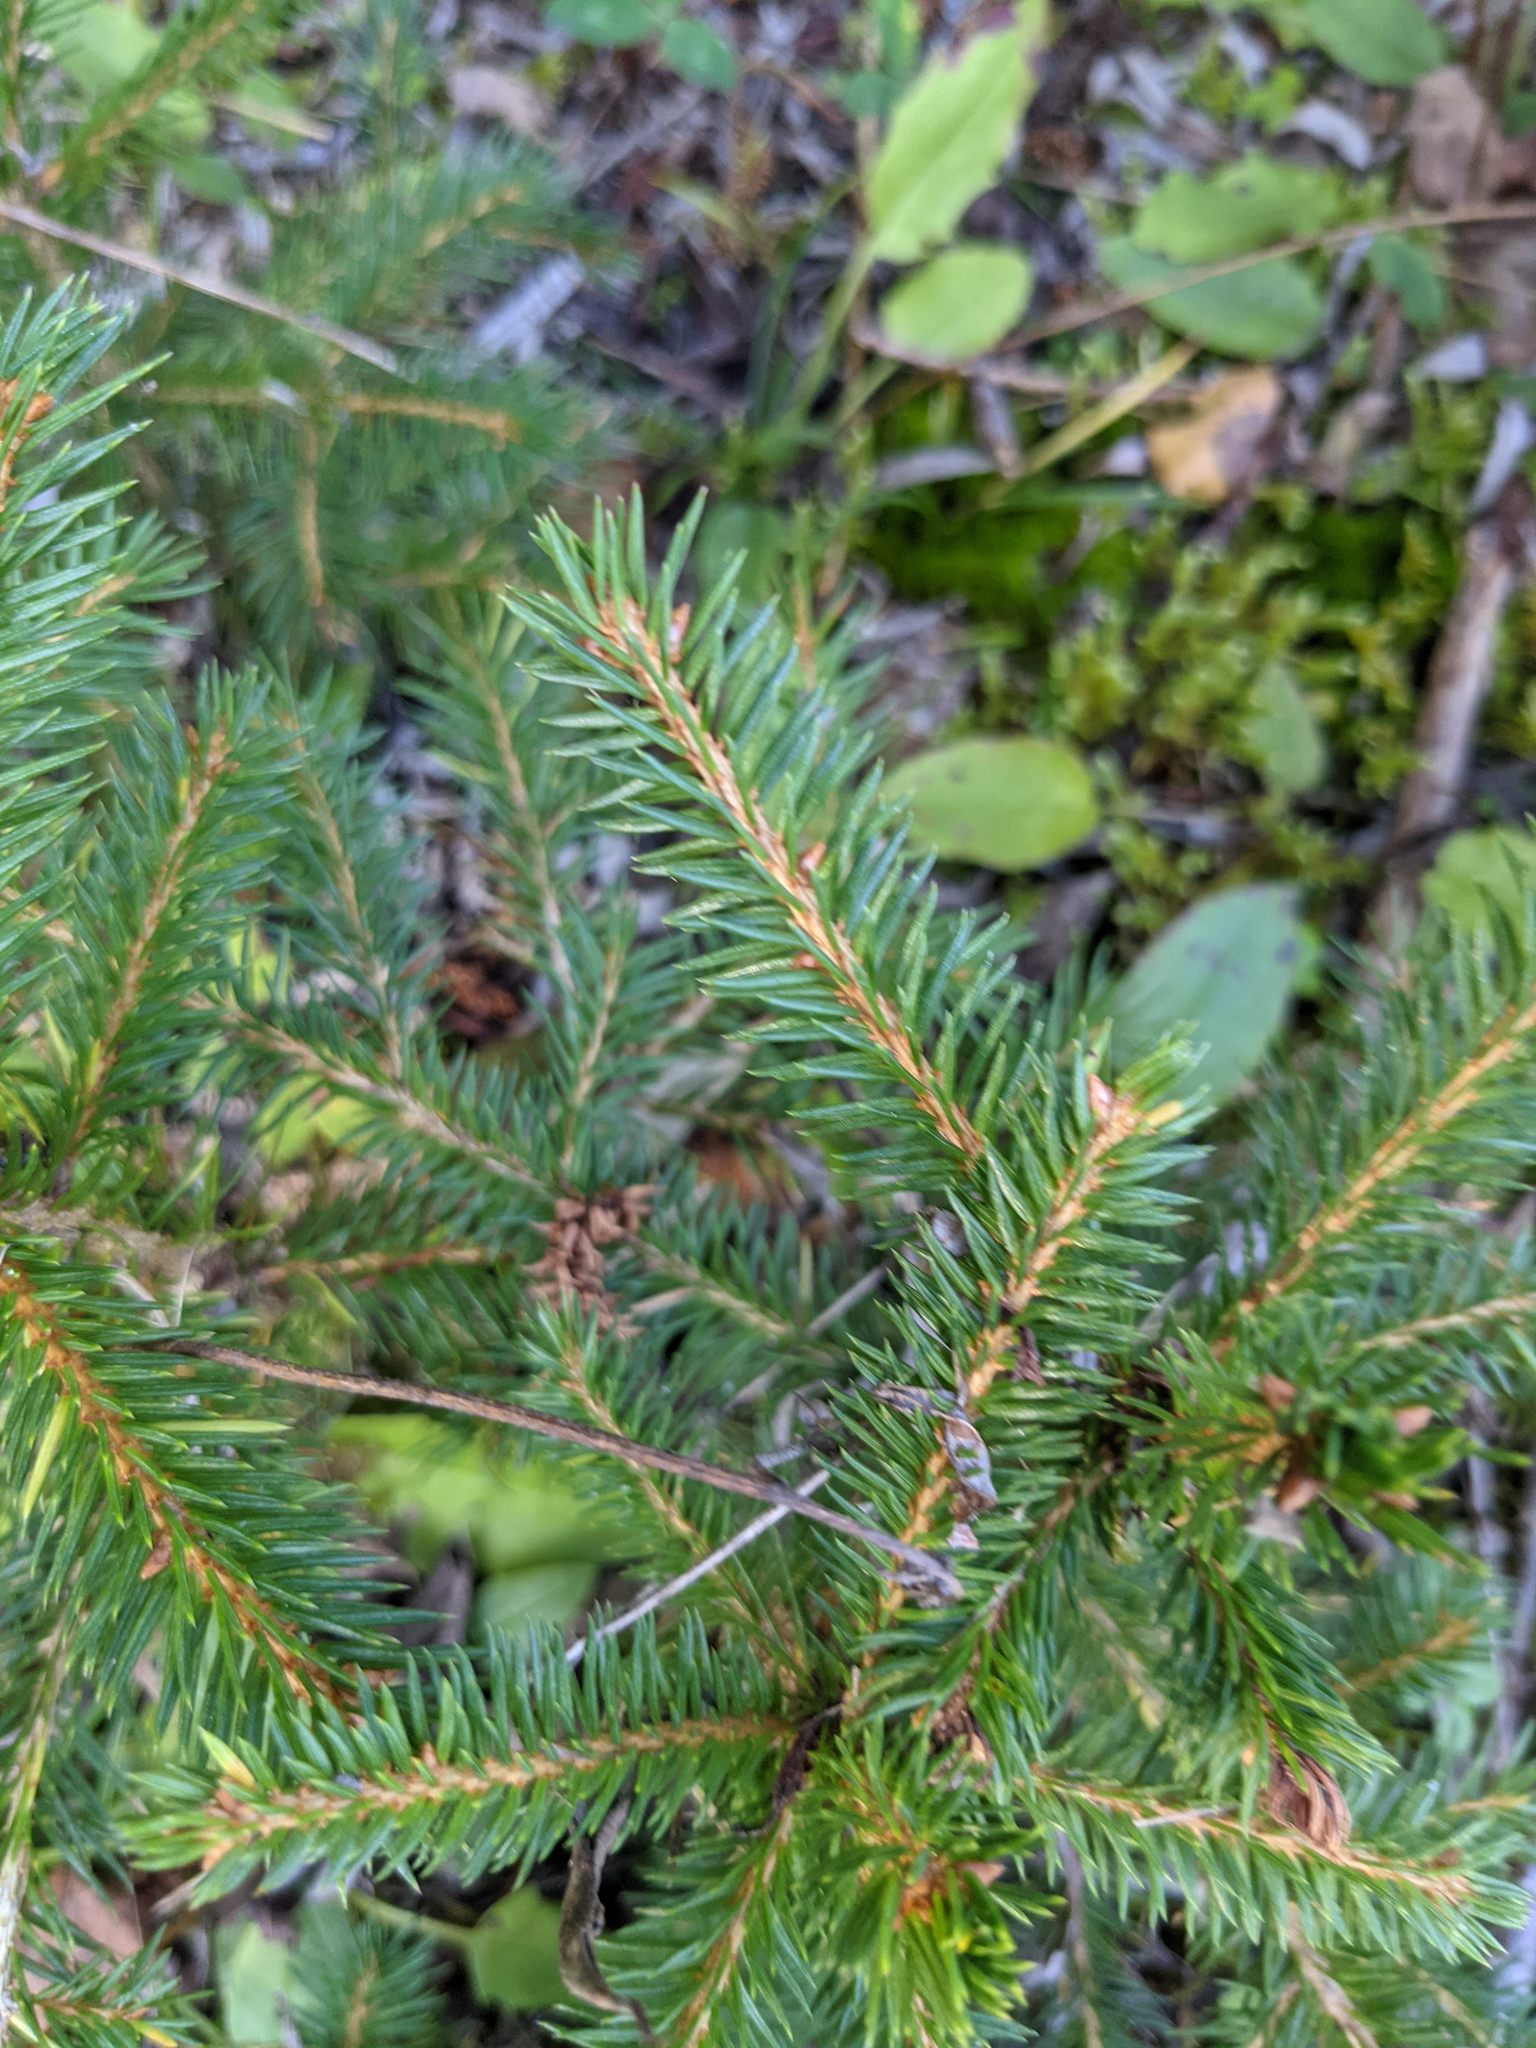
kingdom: Plantae
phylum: Tracheophyta
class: Pinopsida
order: Pinales
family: Pinaceae
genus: Picea
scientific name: Picea abies
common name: Norway spruce
